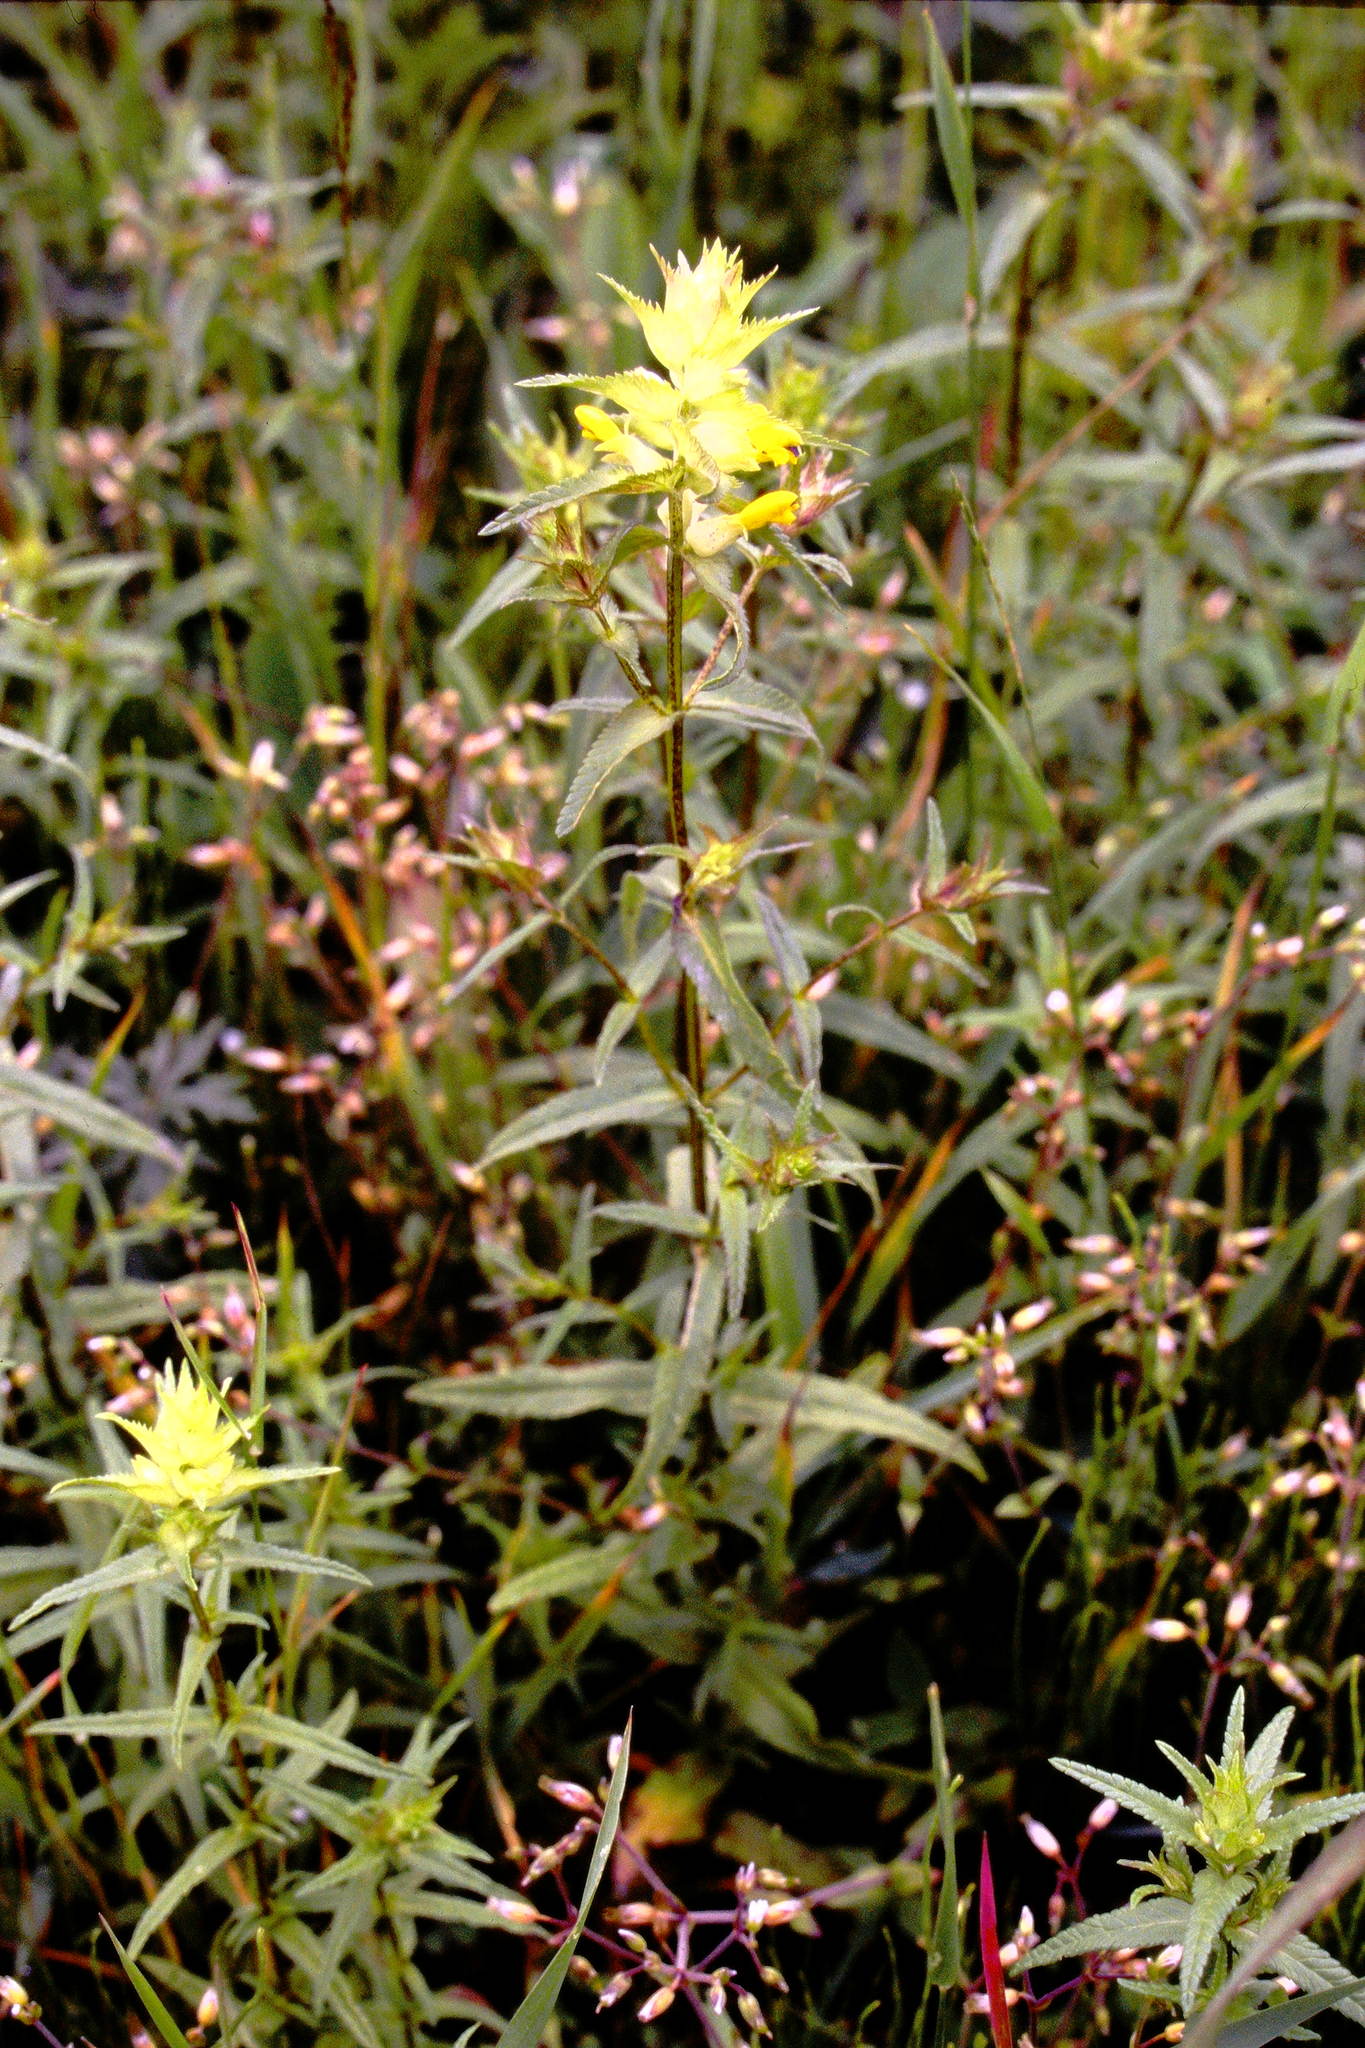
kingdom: Plantae
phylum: Tracheophyta
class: Magnoliopsida
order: Lamiales
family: Orobanchaceae
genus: Rhinanthus
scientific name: Rhinanthus minor
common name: Yellow-rattle
